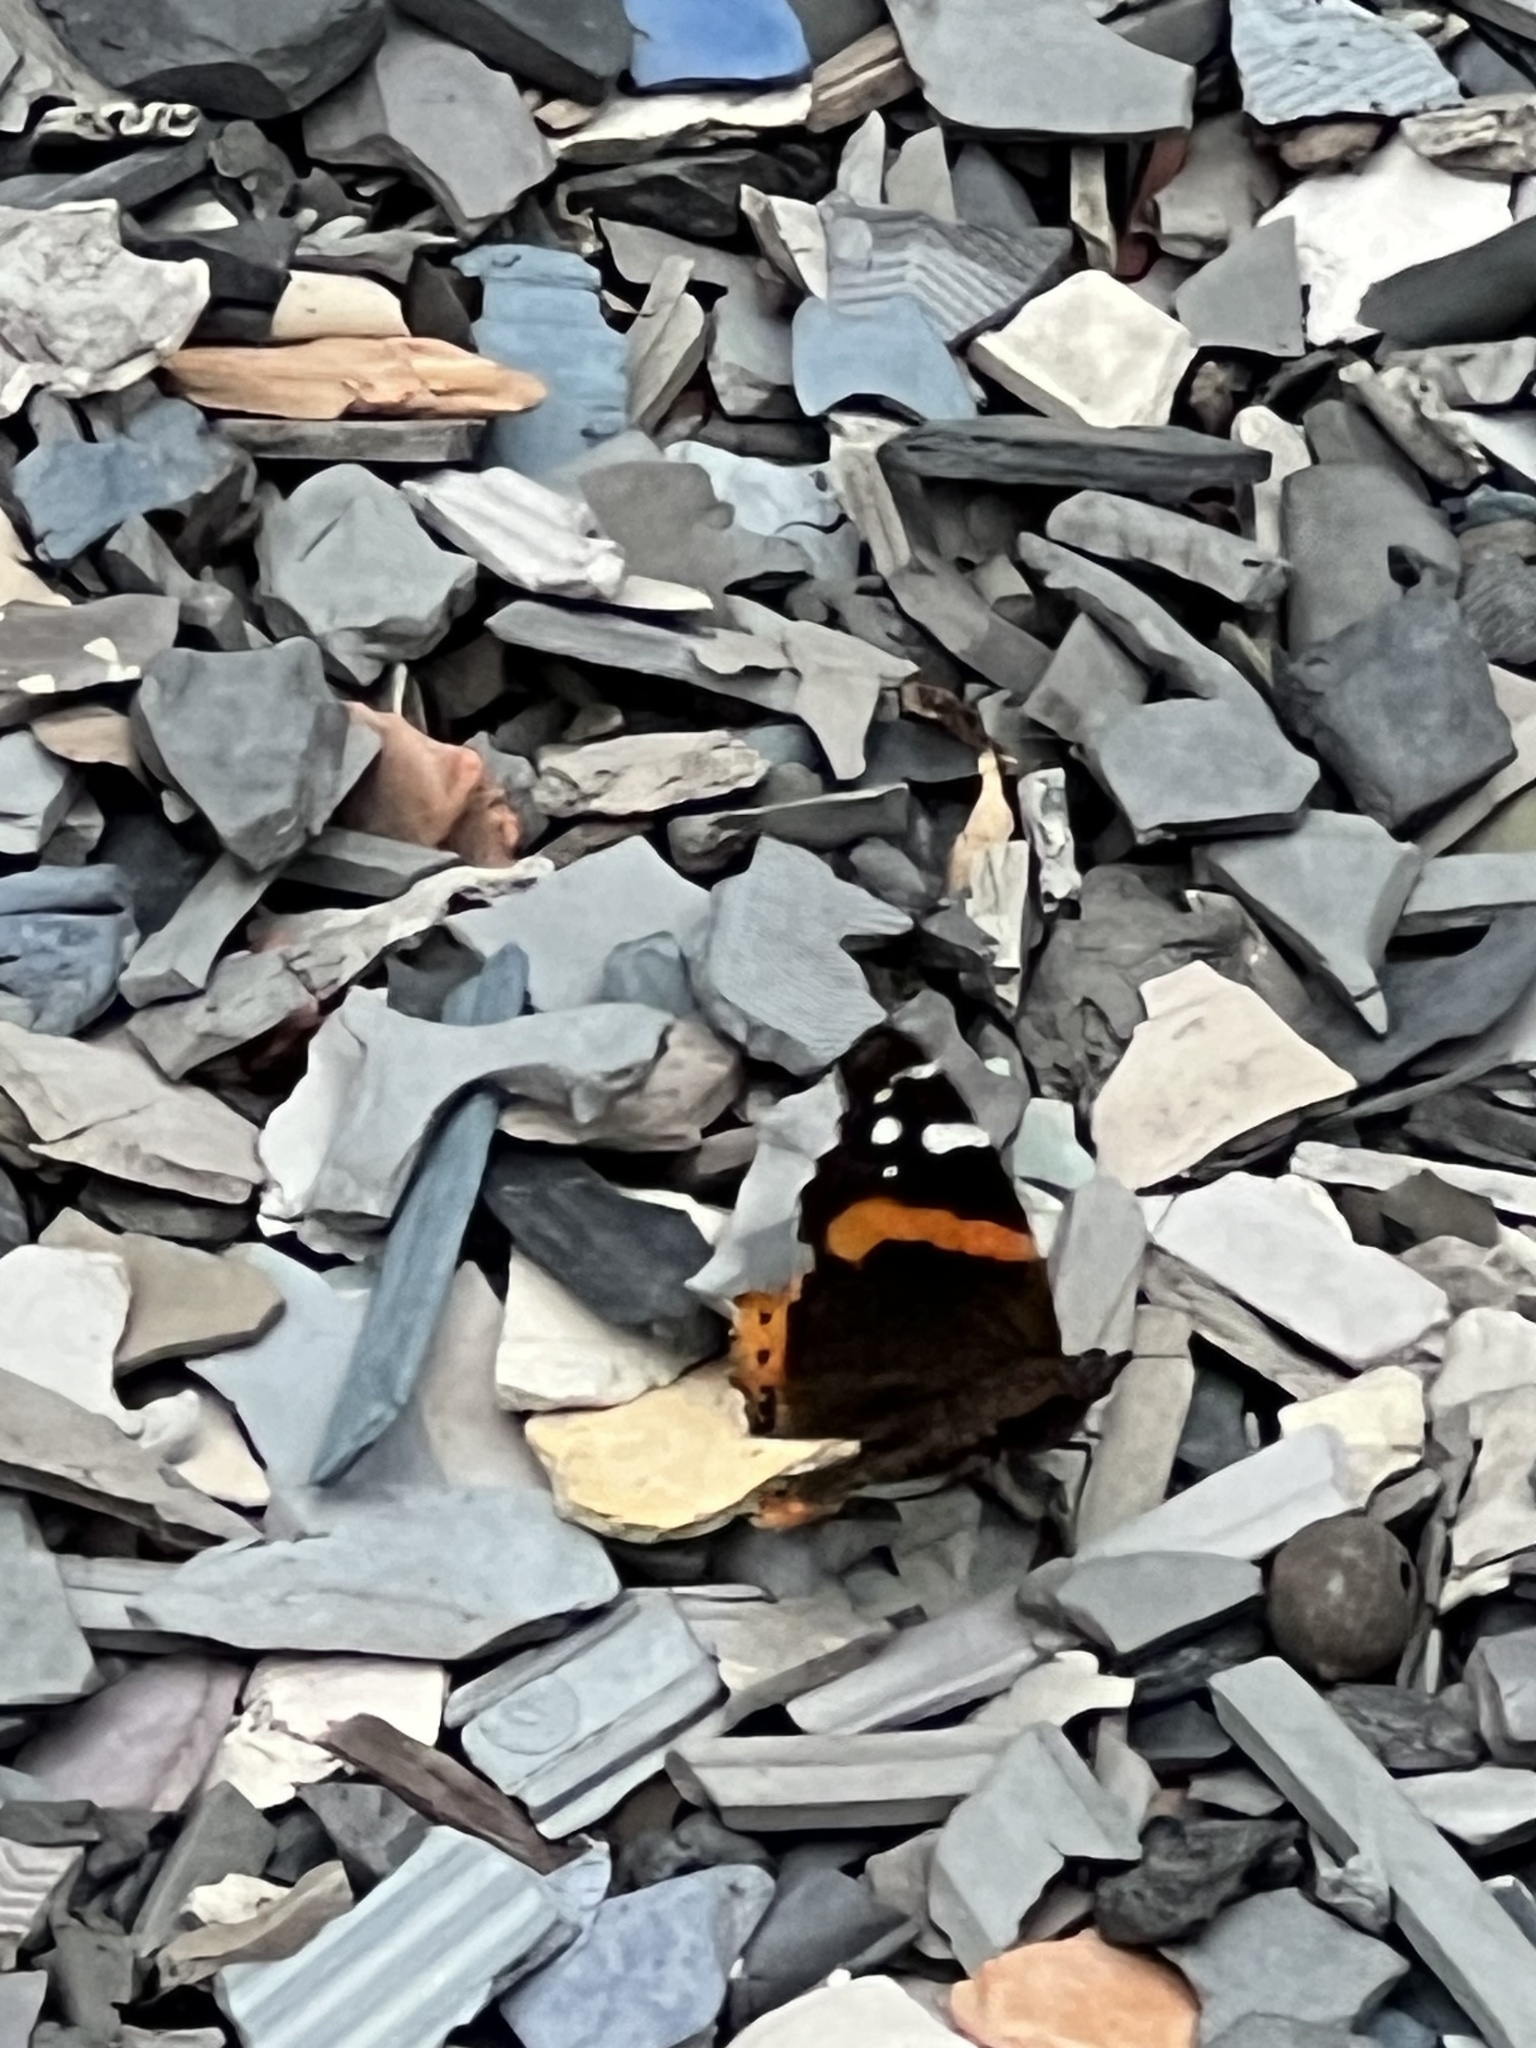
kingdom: Animalia
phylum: Arthropoda
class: Insecta
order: Lepidoptera
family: Nymphalidae
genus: Vanessa
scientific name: Vanessa atalanta
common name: Red admiral
